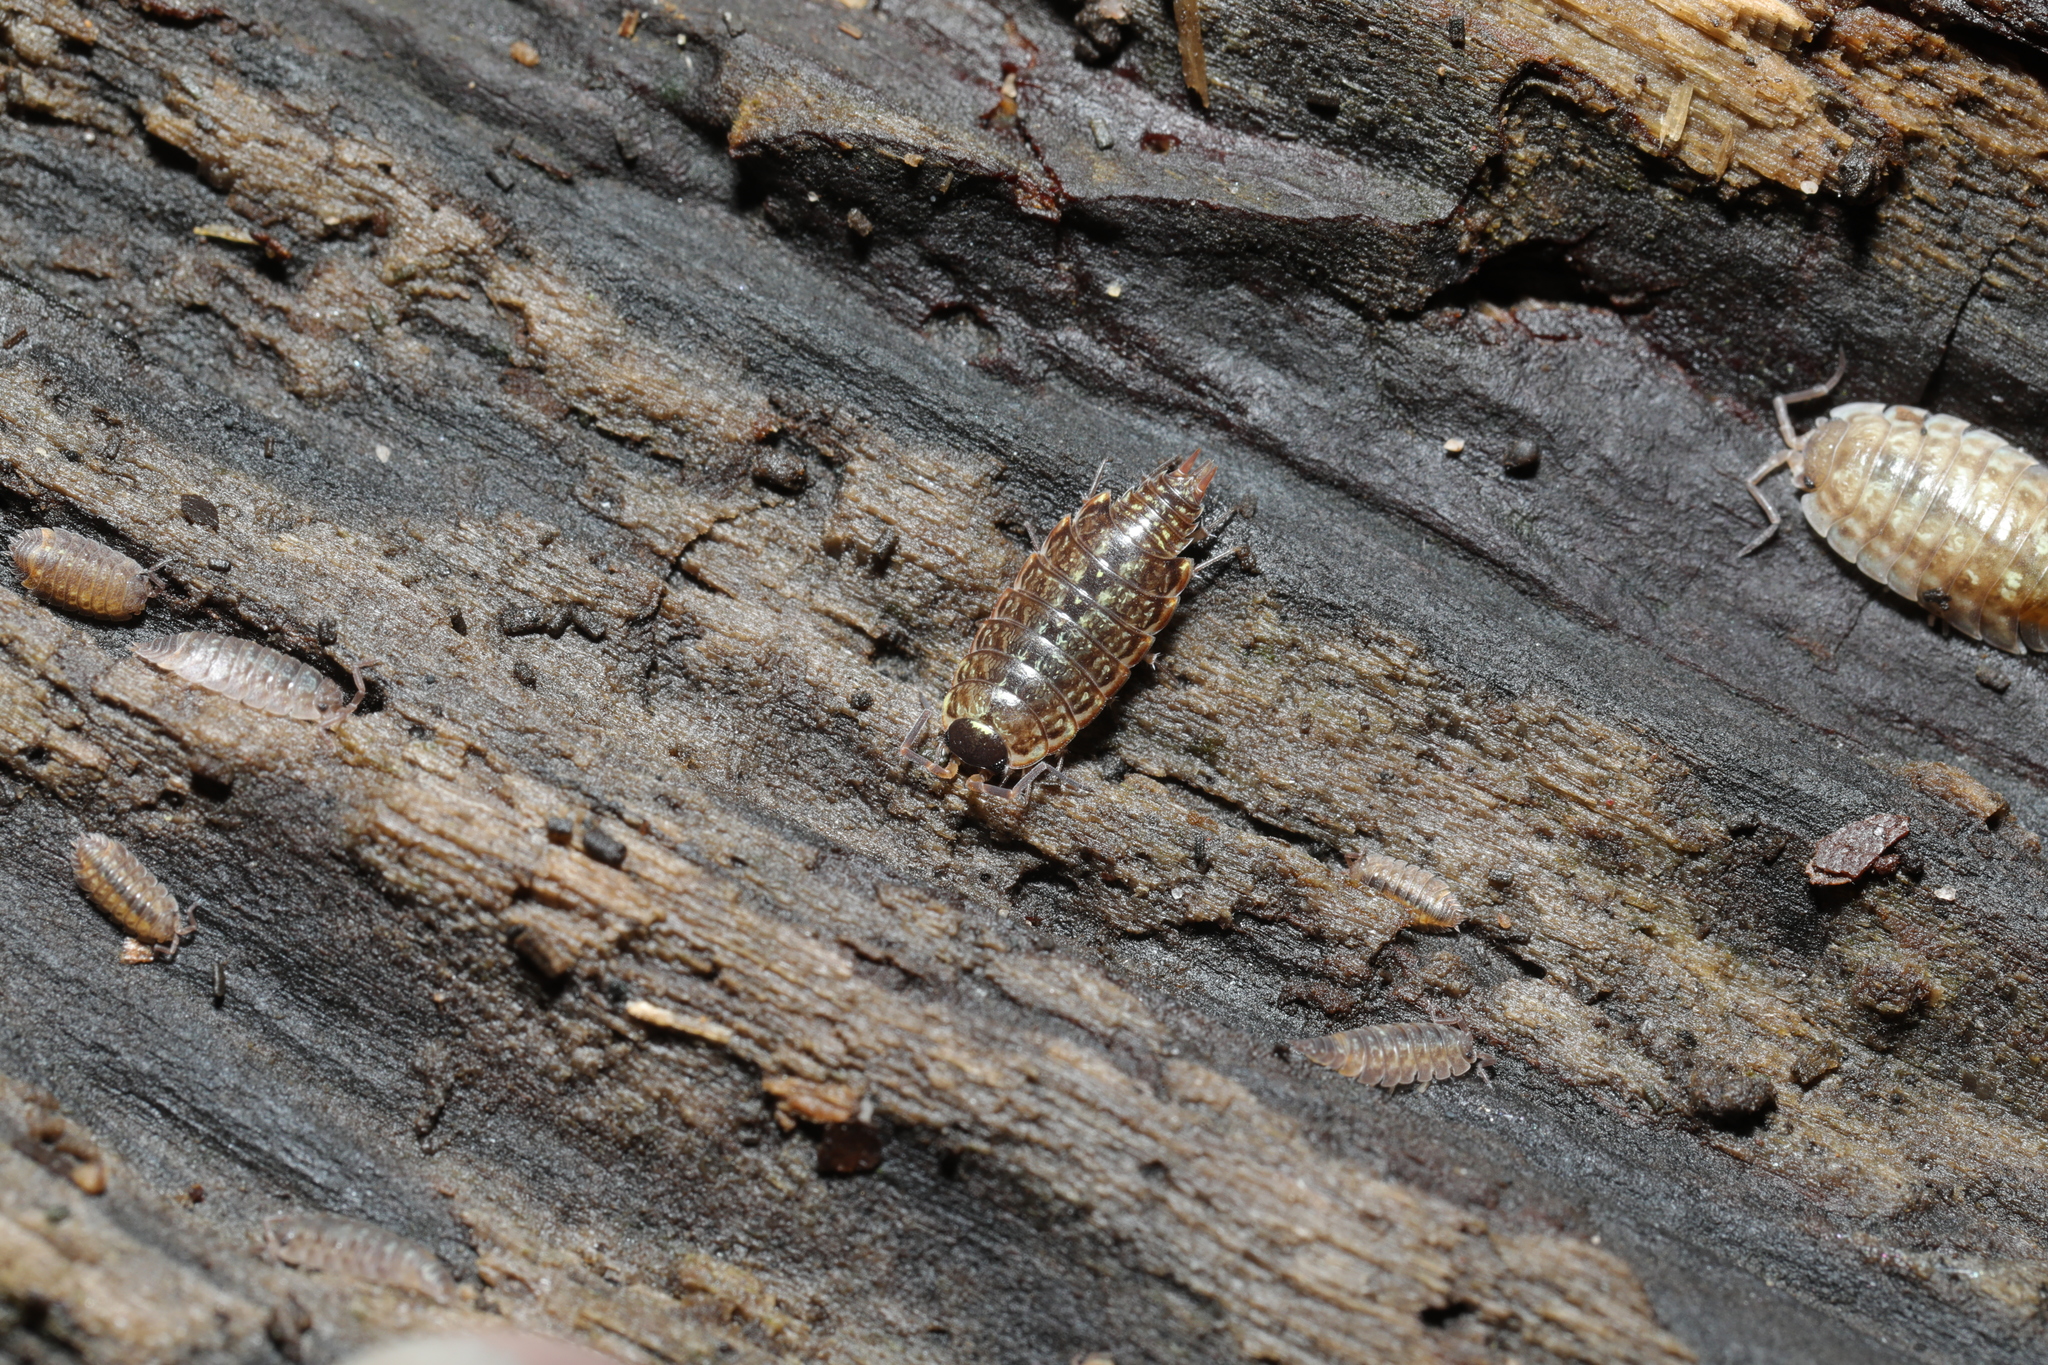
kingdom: Animalia
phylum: Arthropoda
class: Malacostraca
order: Isopoda
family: Philosciidae
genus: Philoscia
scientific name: Philoscia muscorum
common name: Common striped woodlouse
